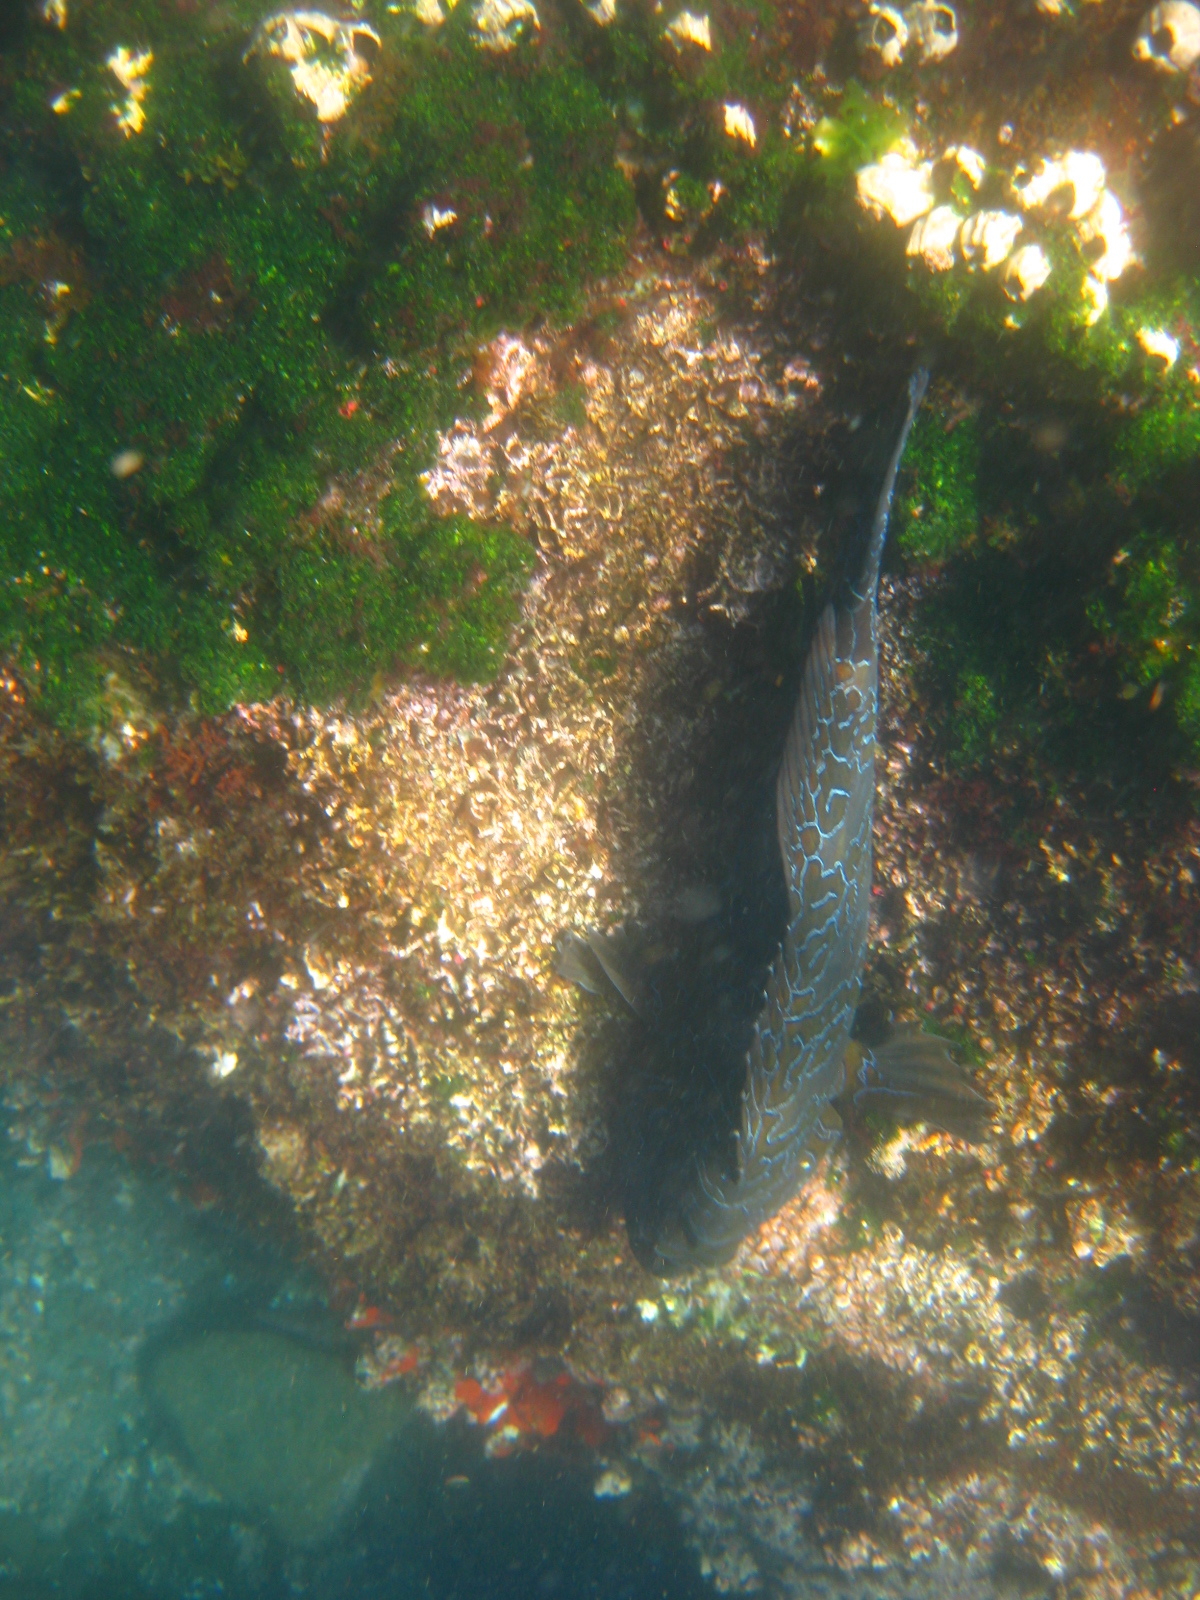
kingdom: Animalia
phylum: Chordata
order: Perciformes
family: Cirrhitidae
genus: Cirrhitus
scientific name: Cirrhitus rivulatus
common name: Giant hawkfish
